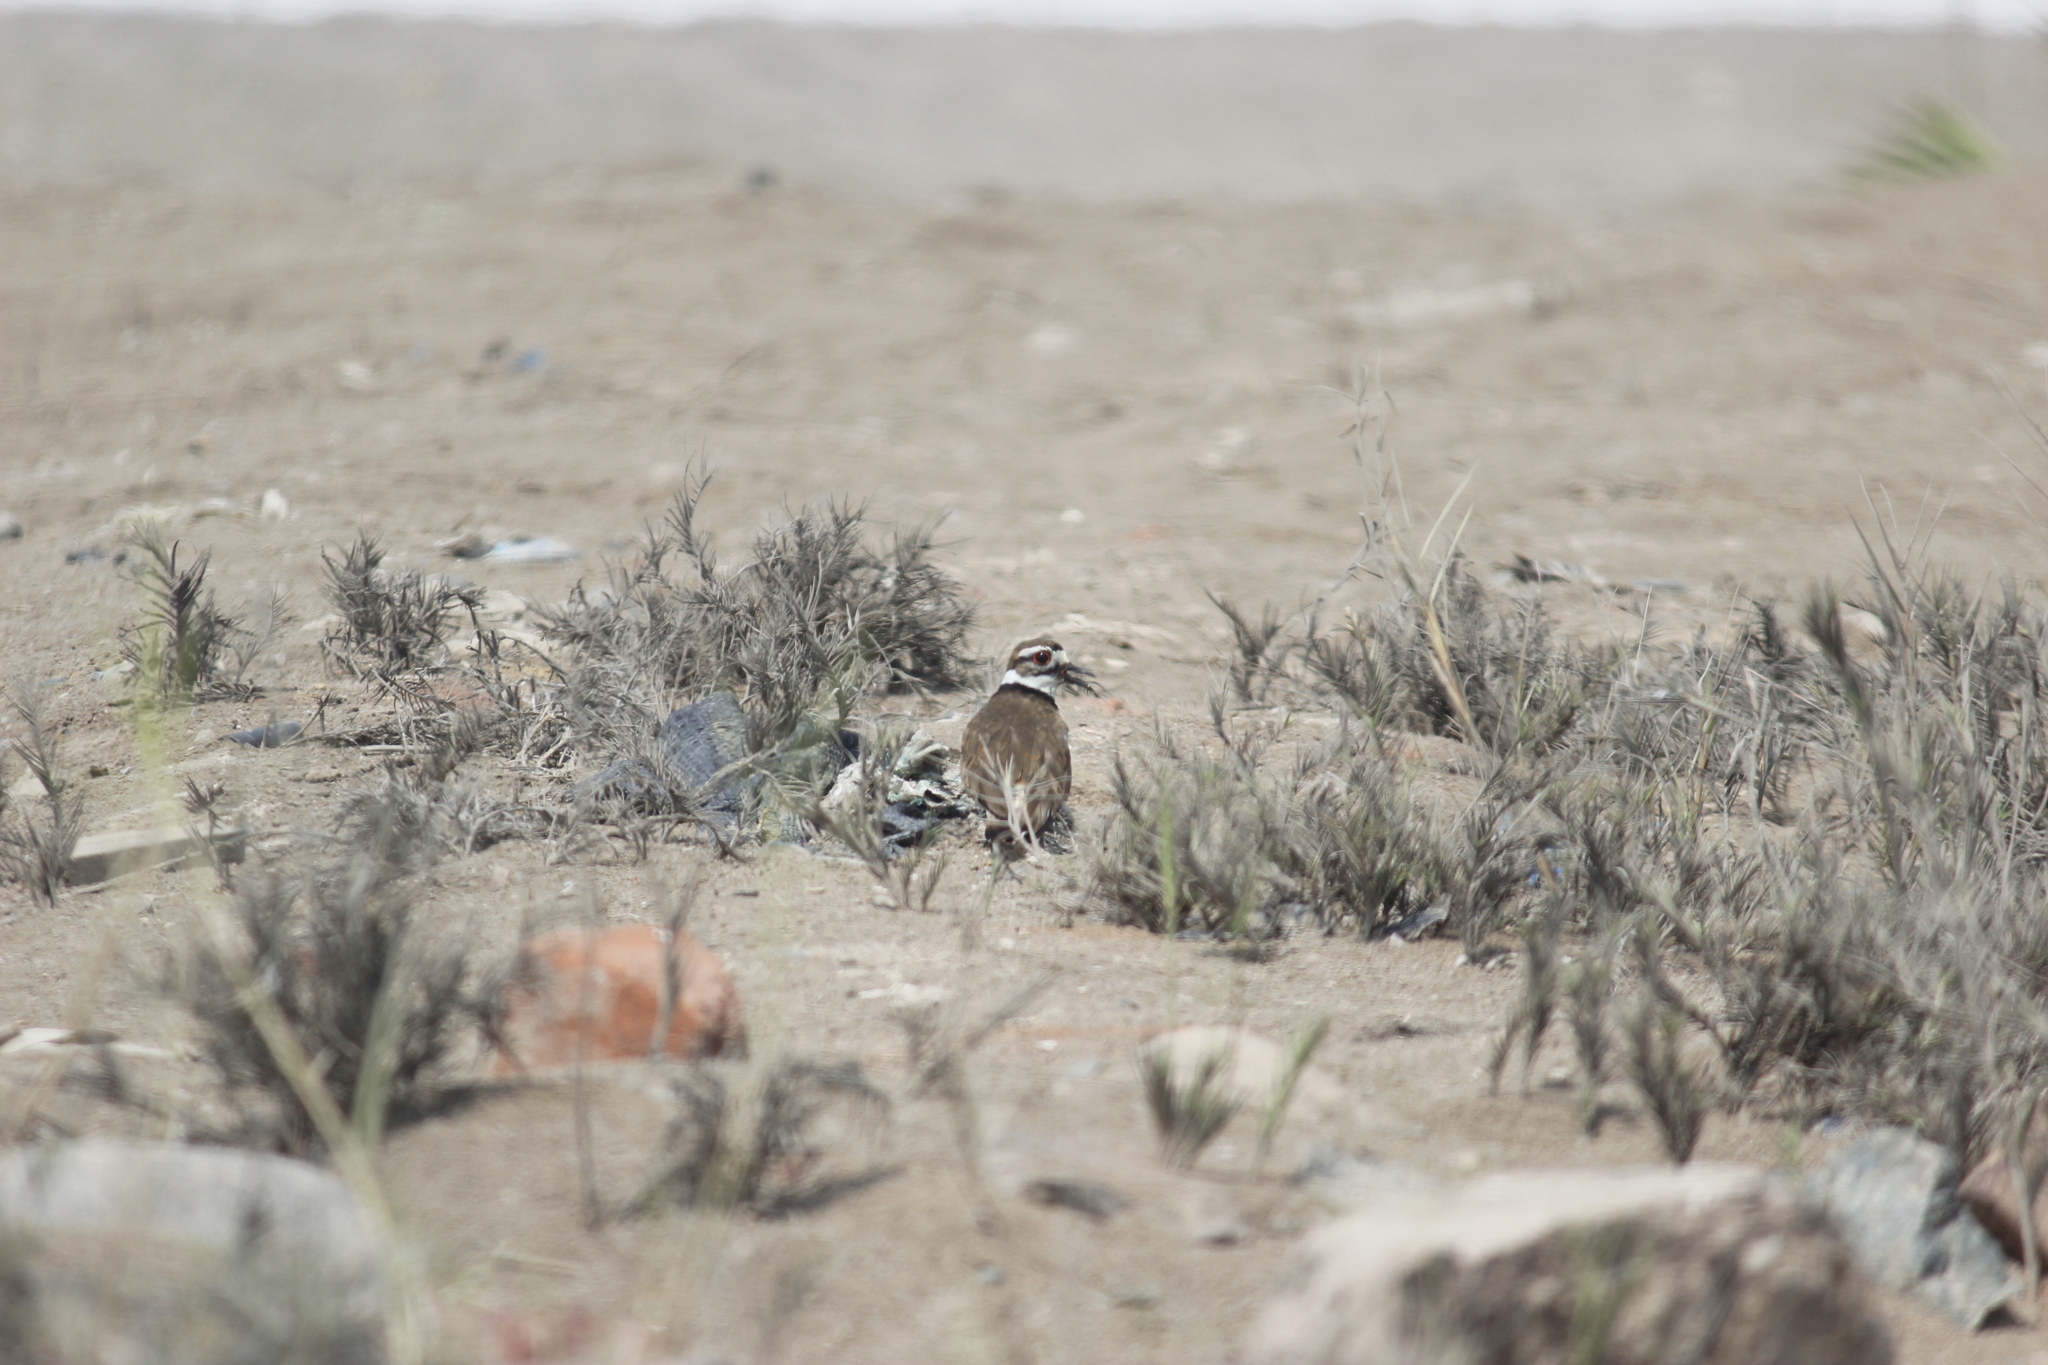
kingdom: Animalia
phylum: Chordata
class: Aves
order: Charadriiformes
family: Charadriidae
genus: Charadrius
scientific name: Charadrius vociferus
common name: Killdeer
